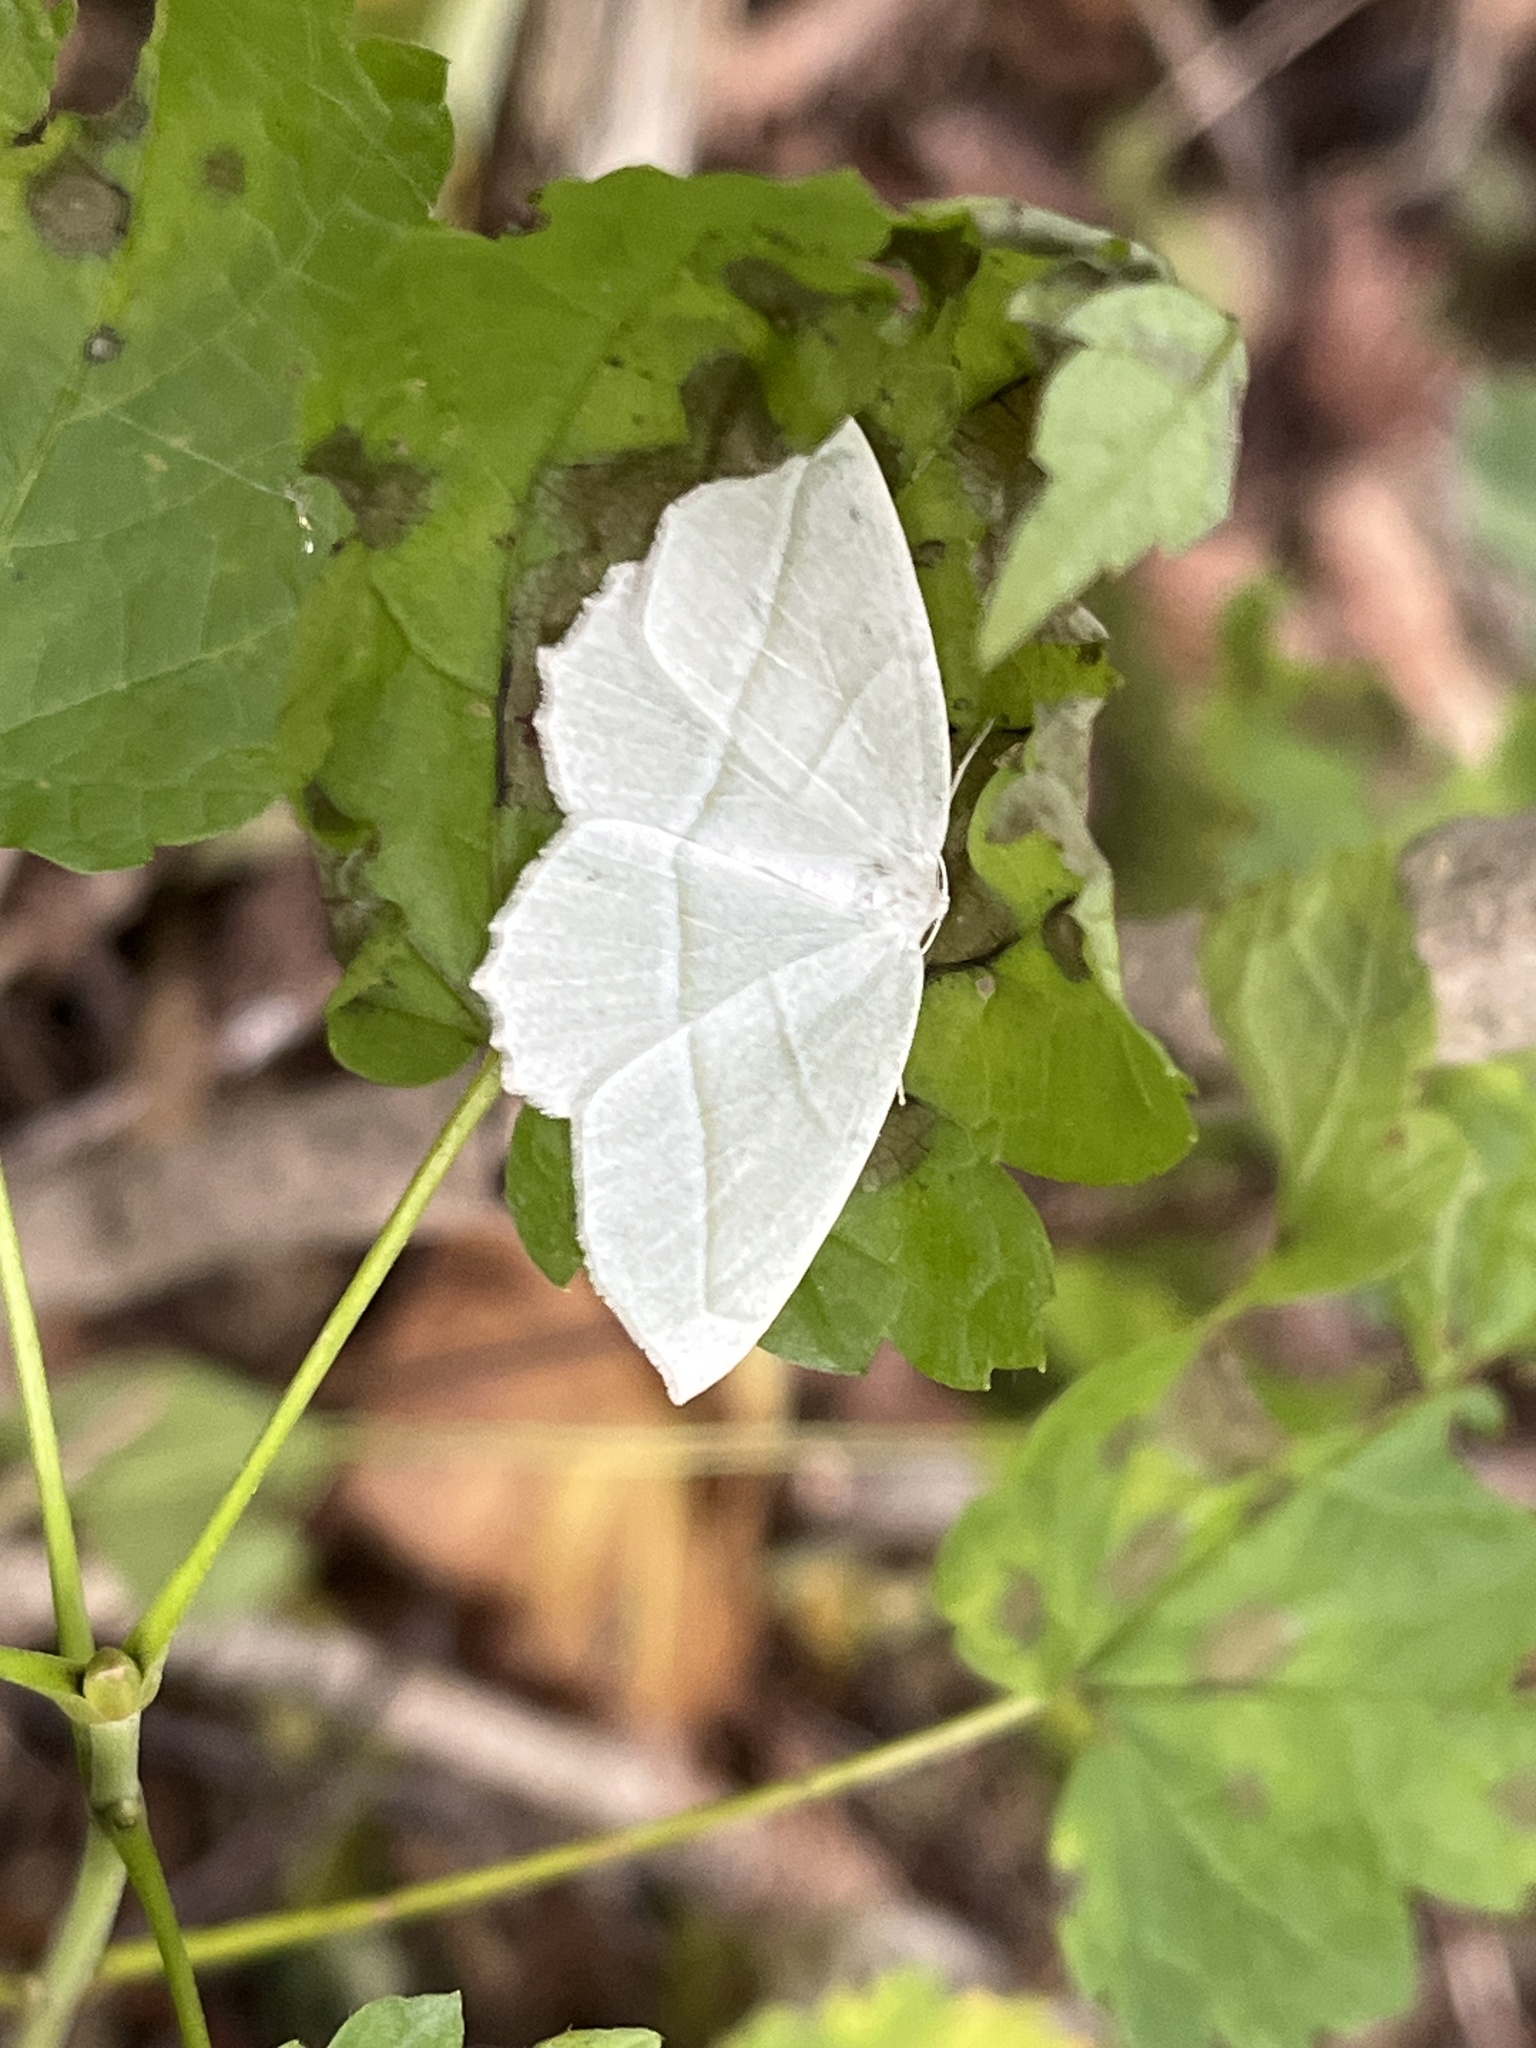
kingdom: Animalia
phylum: Arthropoda
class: Insecta
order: Lepidoptera
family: Geometridae
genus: Campaea
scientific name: Campaea perlata
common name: Fringed looper
